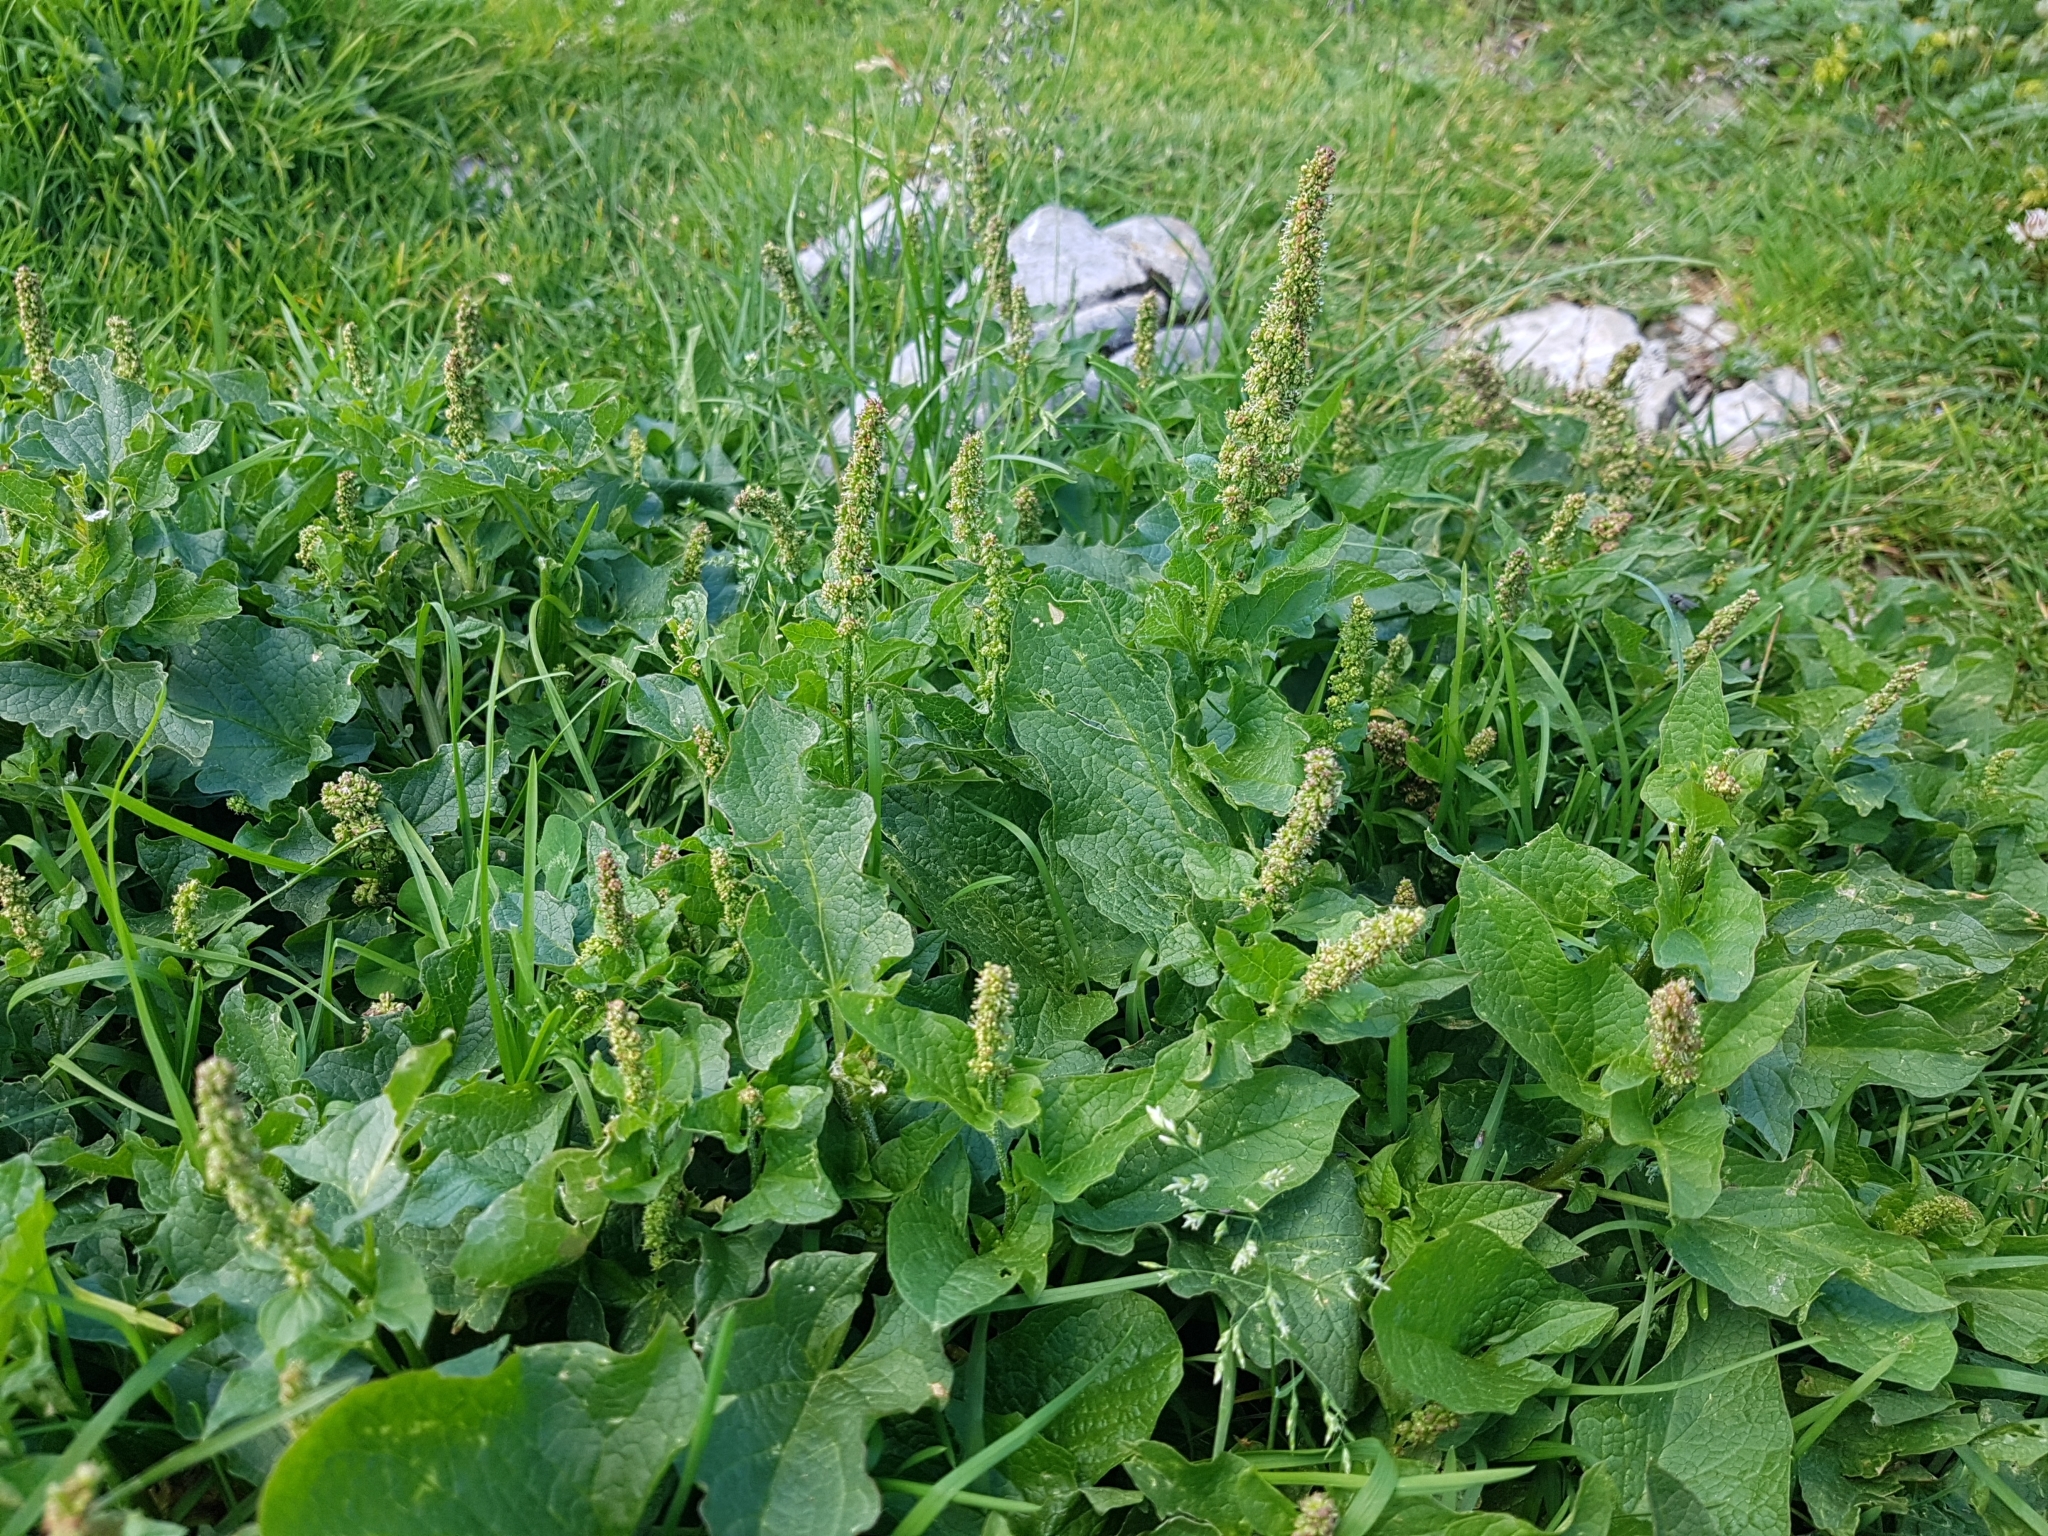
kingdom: Plantae
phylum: Tracheophyta
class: Magnoliopsida
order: Caryophyllales
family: Amaranthaceae
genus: Blitum
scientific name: Blitum bonus-henricus
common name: Good king henry
